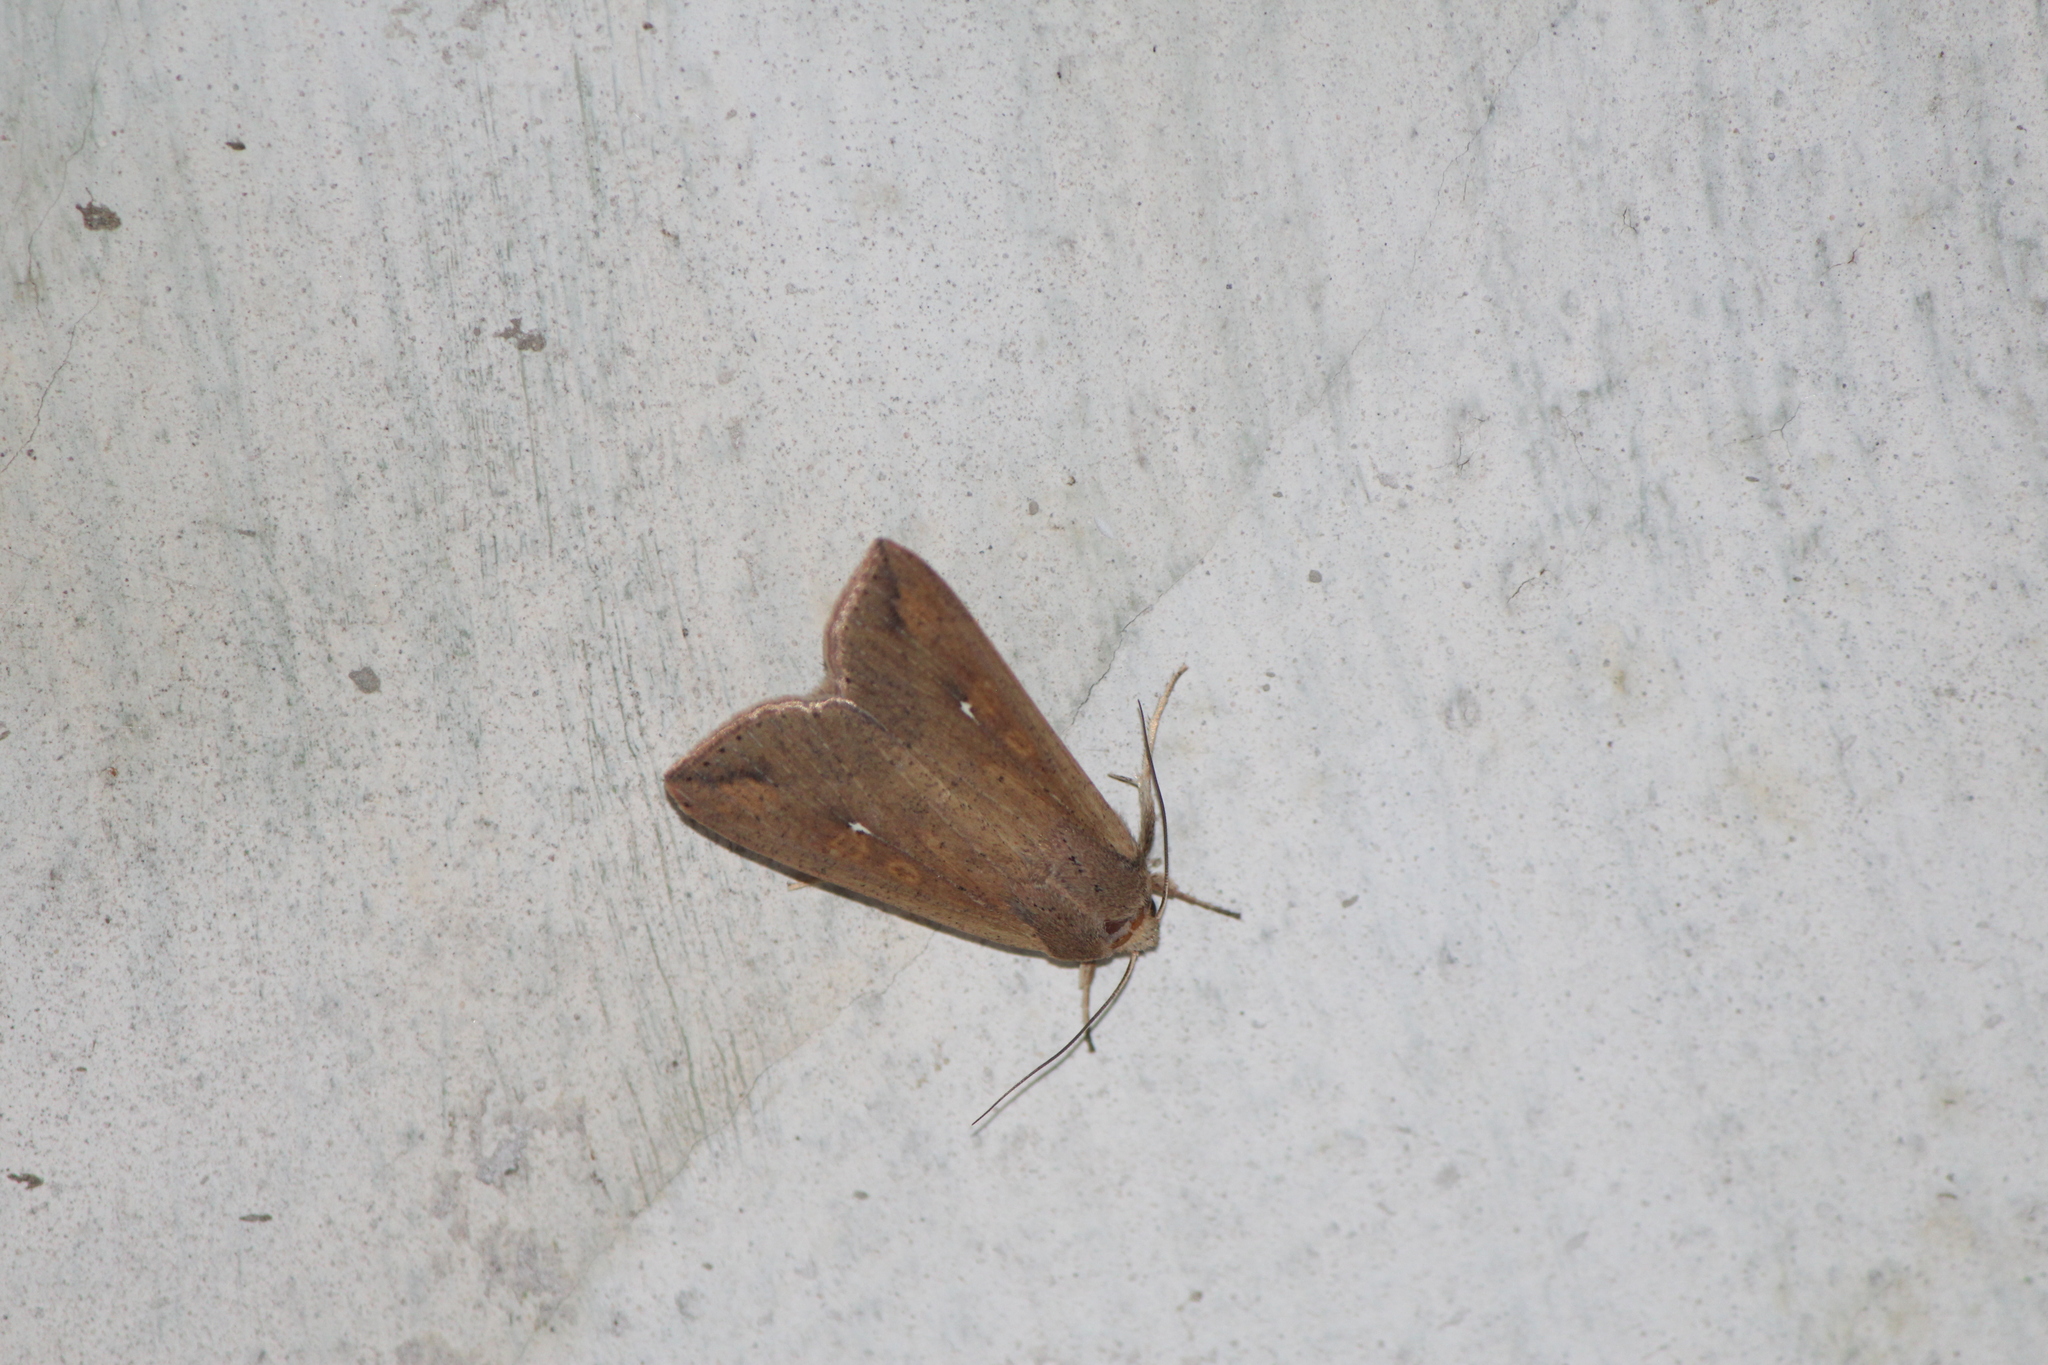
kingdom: Animalia
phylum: Arthropoda
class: Insecta
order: Lepidoptera
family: Noctuidae
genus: Mythimna
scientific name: Mythimna unipuncta
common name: White-speck
